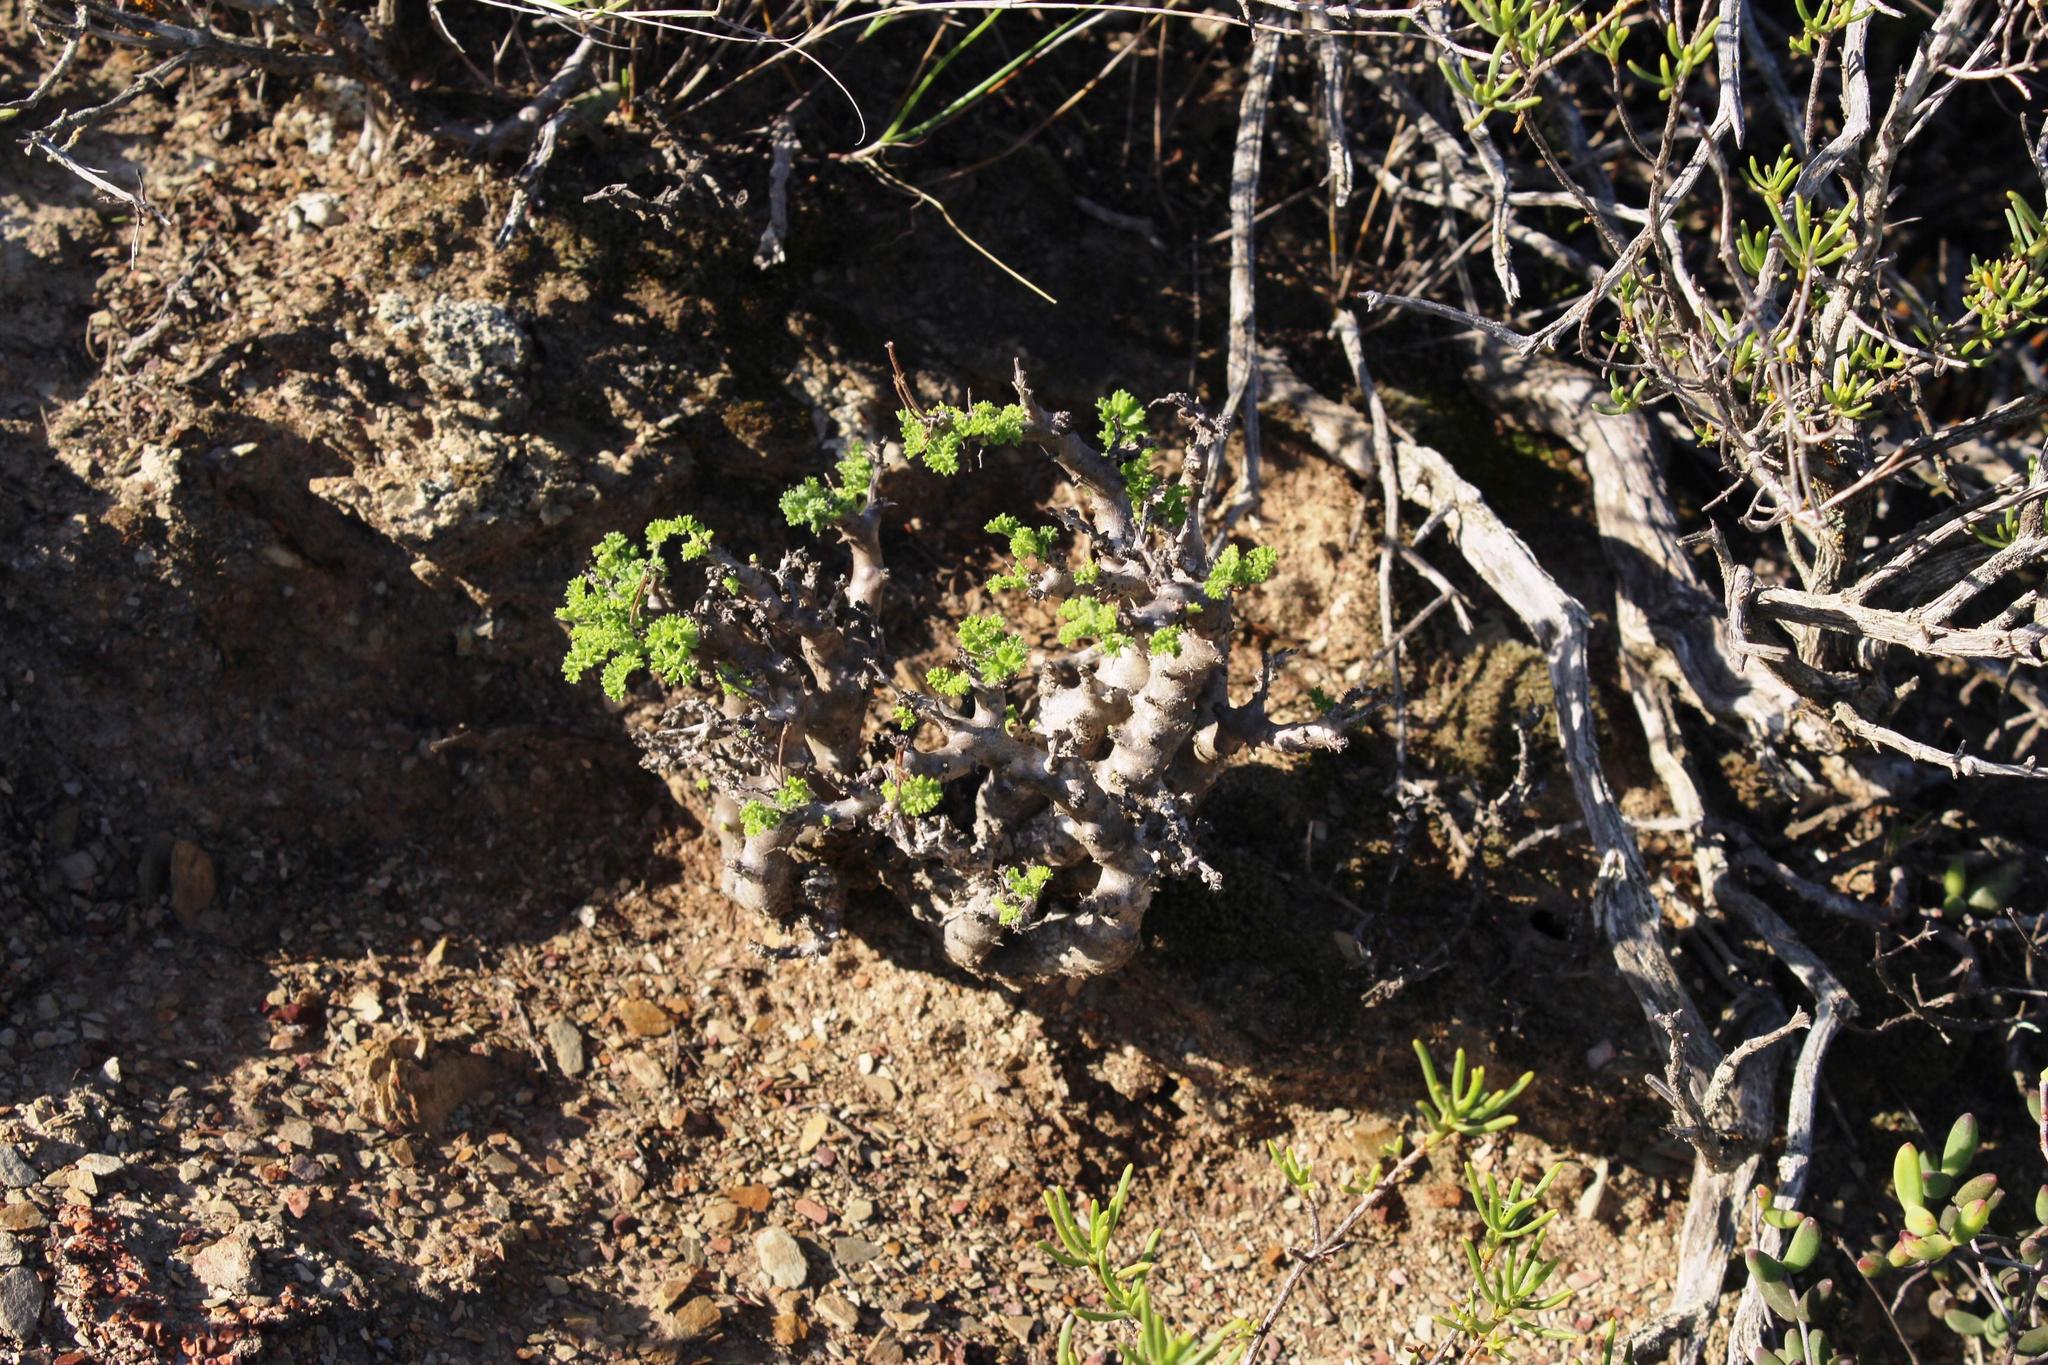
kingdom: Plantae
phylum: Tracheophyta
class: Magnoliopsida
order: Geraniales
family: Geraniaceae
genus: Pelargonium
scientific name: Pelargonium alternans
